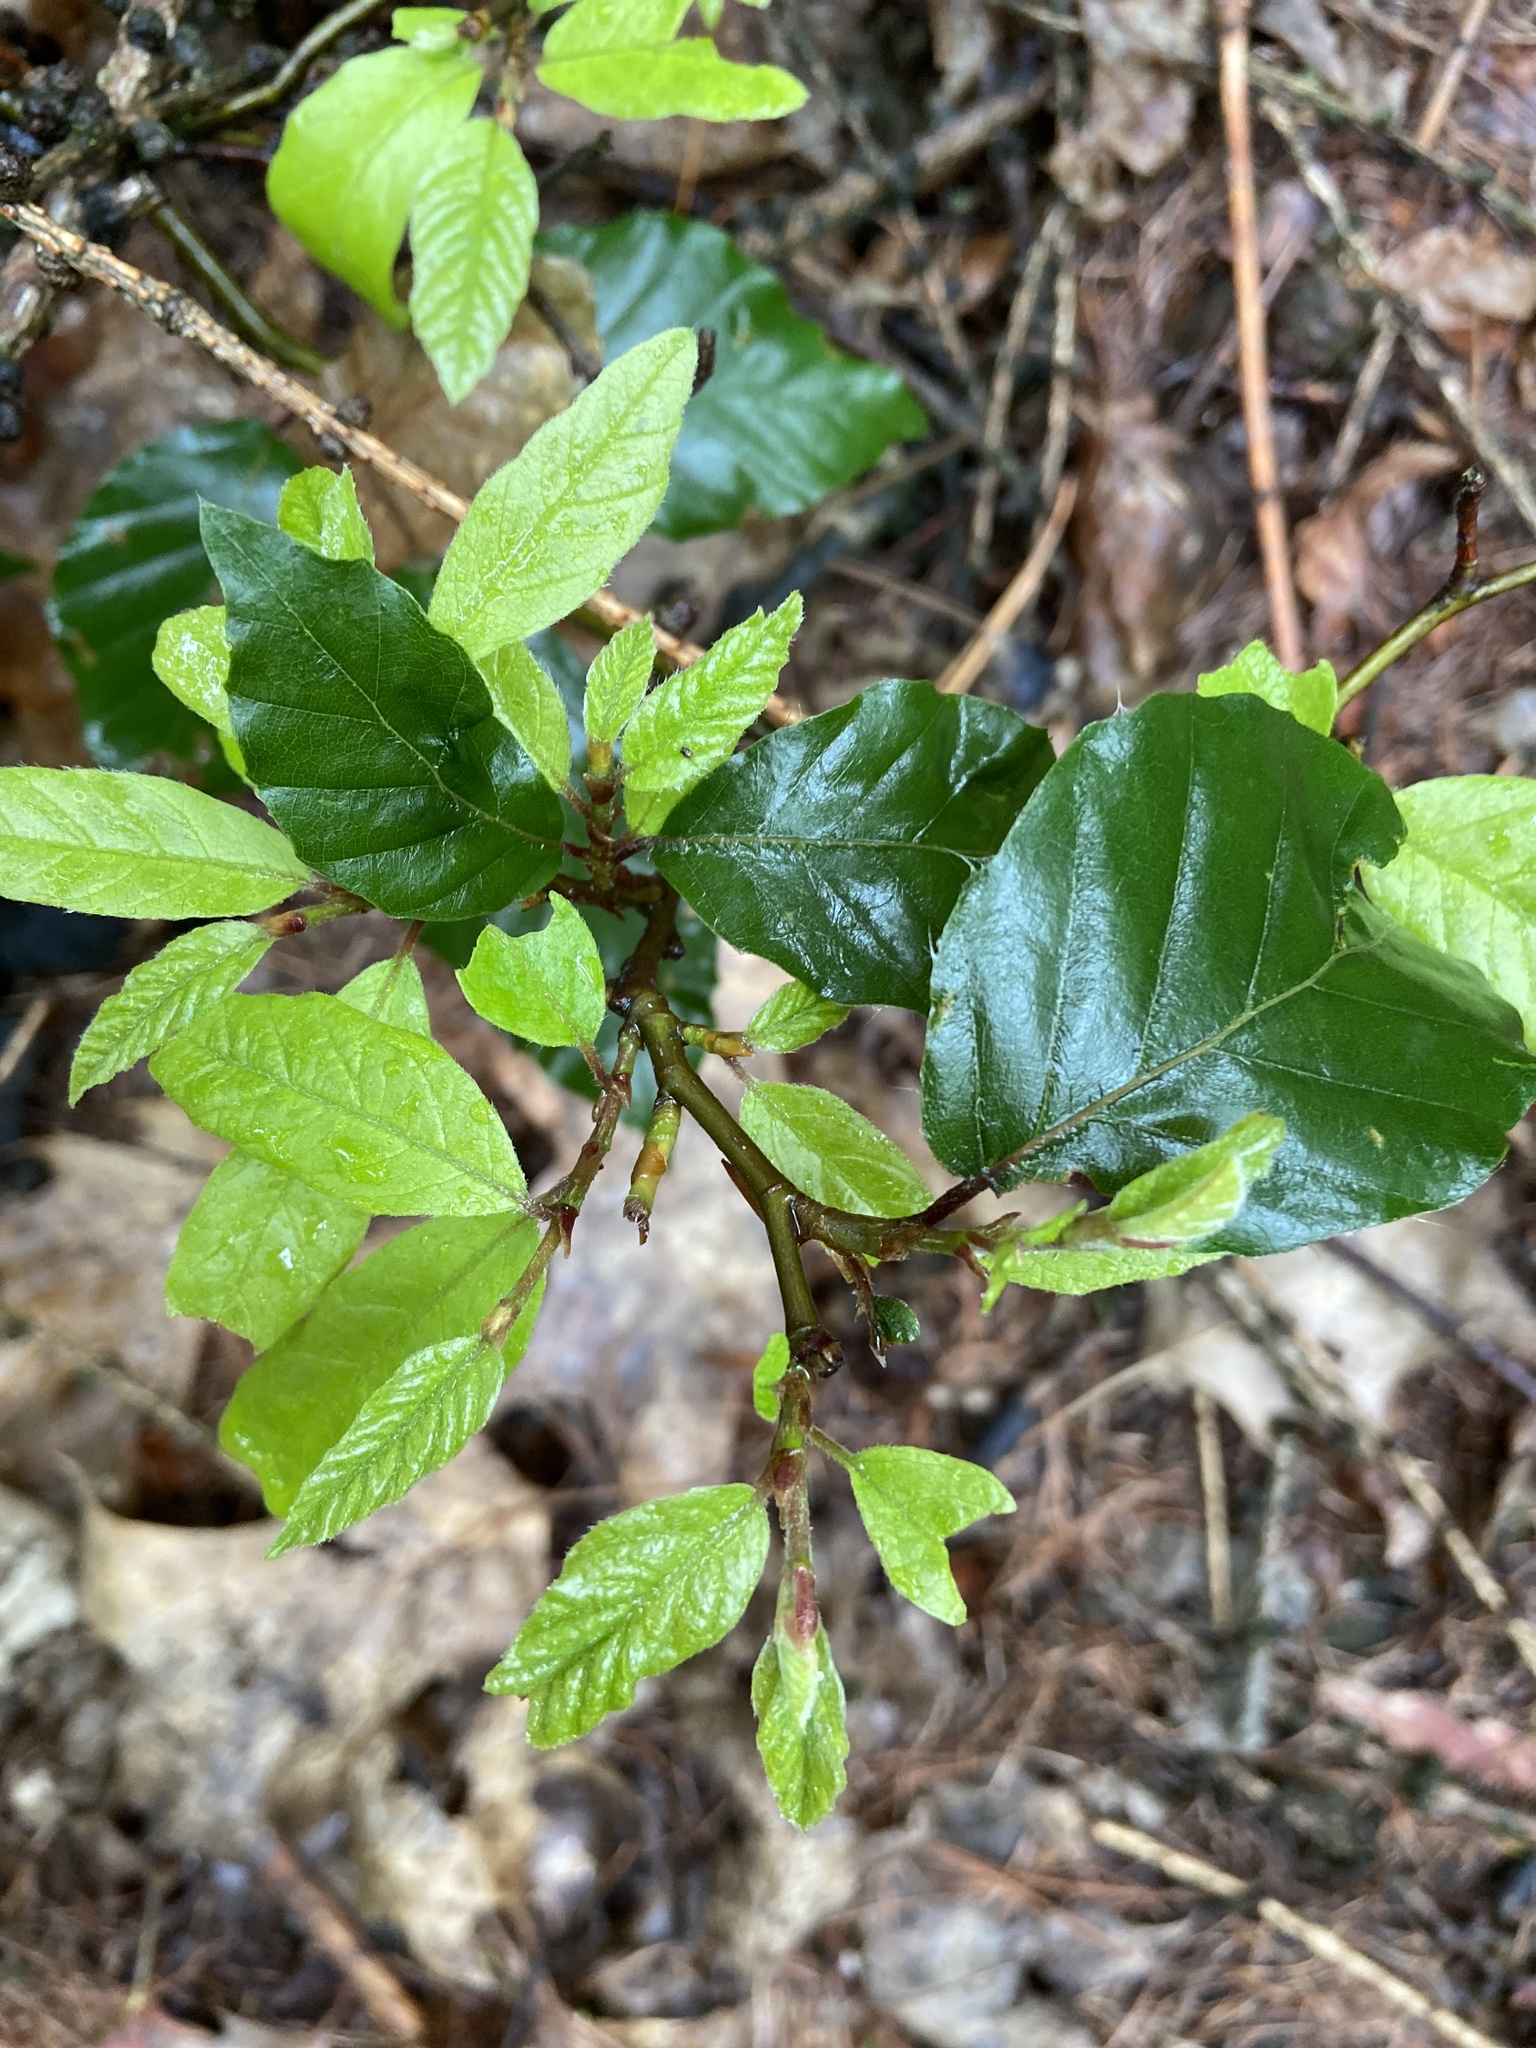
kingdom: Plantae
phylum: Tracheophyta
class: Magnoliopsida
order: Fagales
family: Fagaceae
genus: Fagus
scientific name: Fagus sylvatica
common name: Beech
